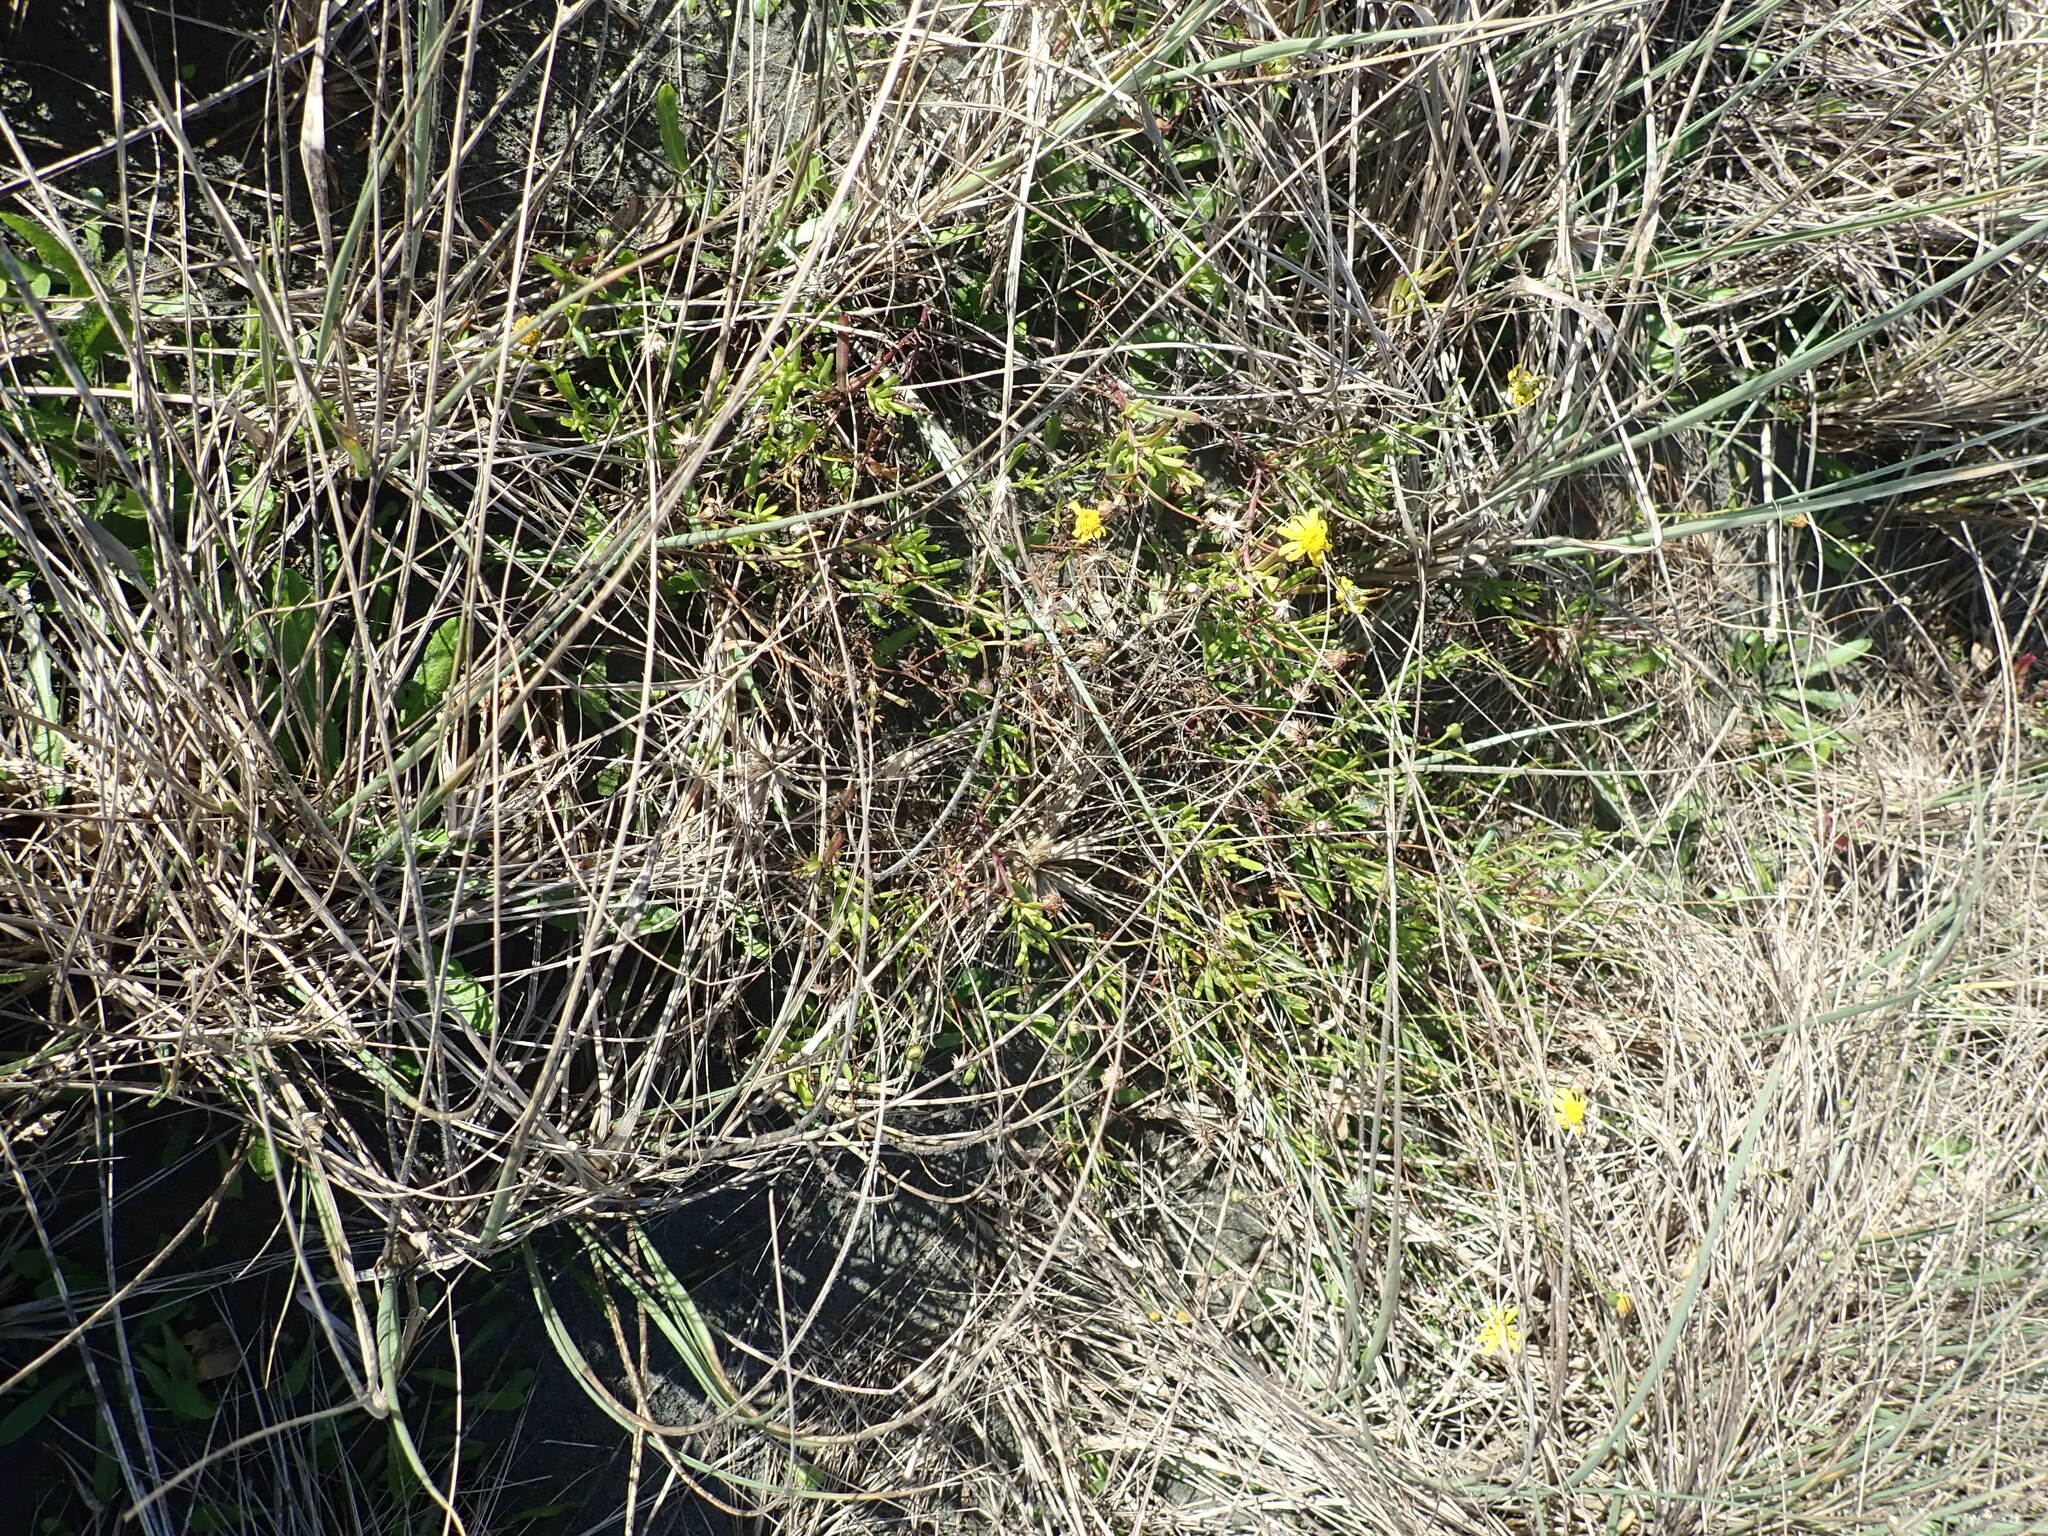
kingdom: Plantae
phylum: Tracheophyta
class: Magnoliopsida
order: Asterales
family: Asteraceae
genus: Senecio
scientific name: Senecio skirrhodon
